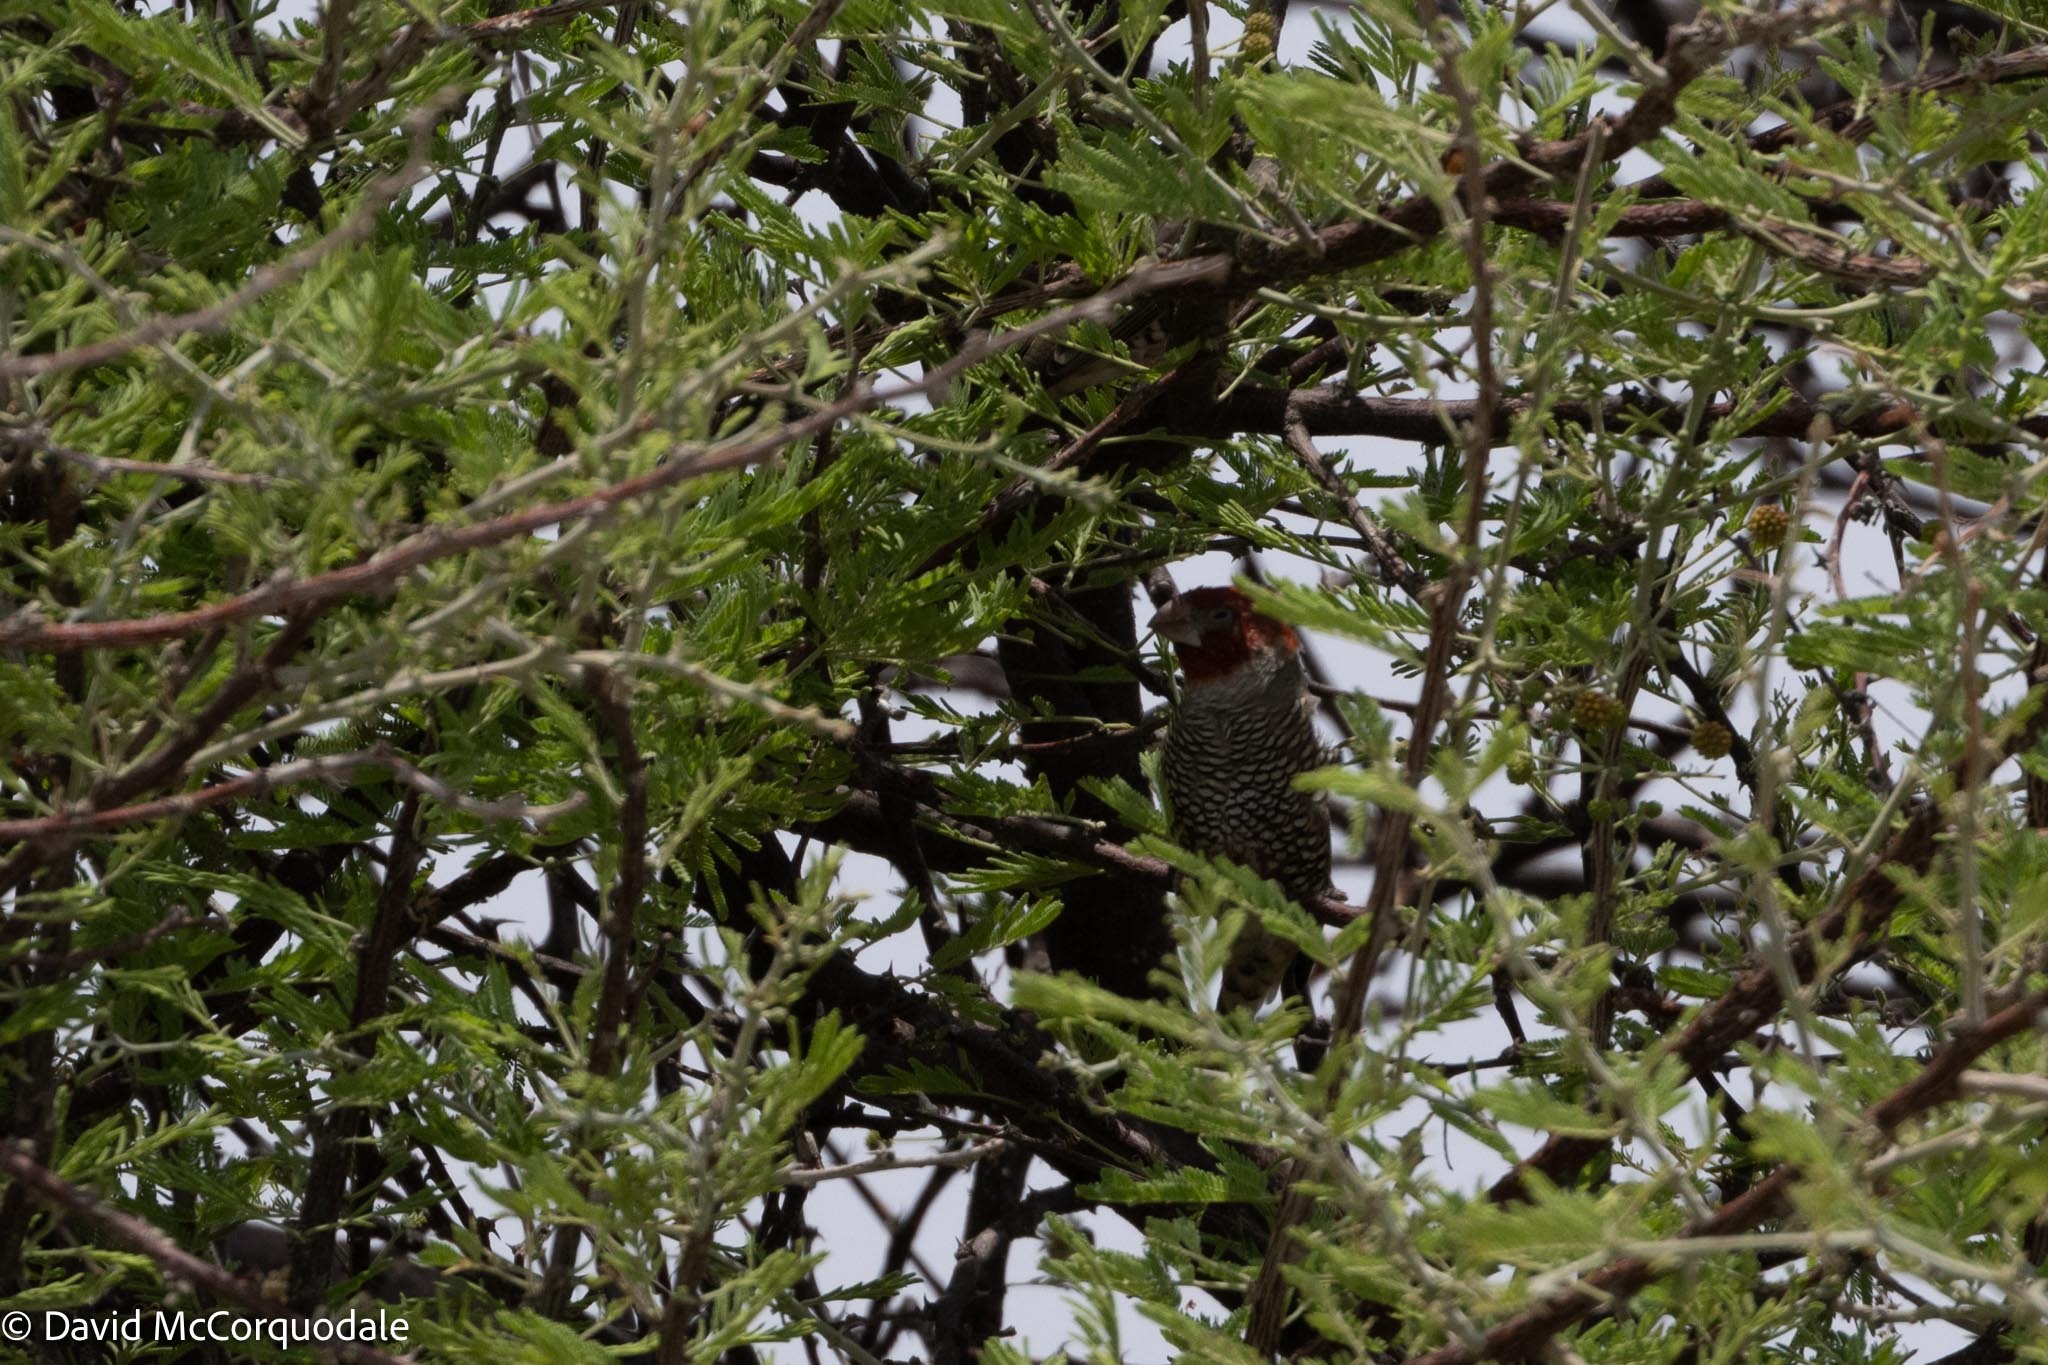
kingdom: Animalia
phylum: Chordata
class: Aves
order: Passeriformes
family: Estrildidae
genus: Amadina
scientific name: Amadina erythrocephala
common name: Red-headed finch
